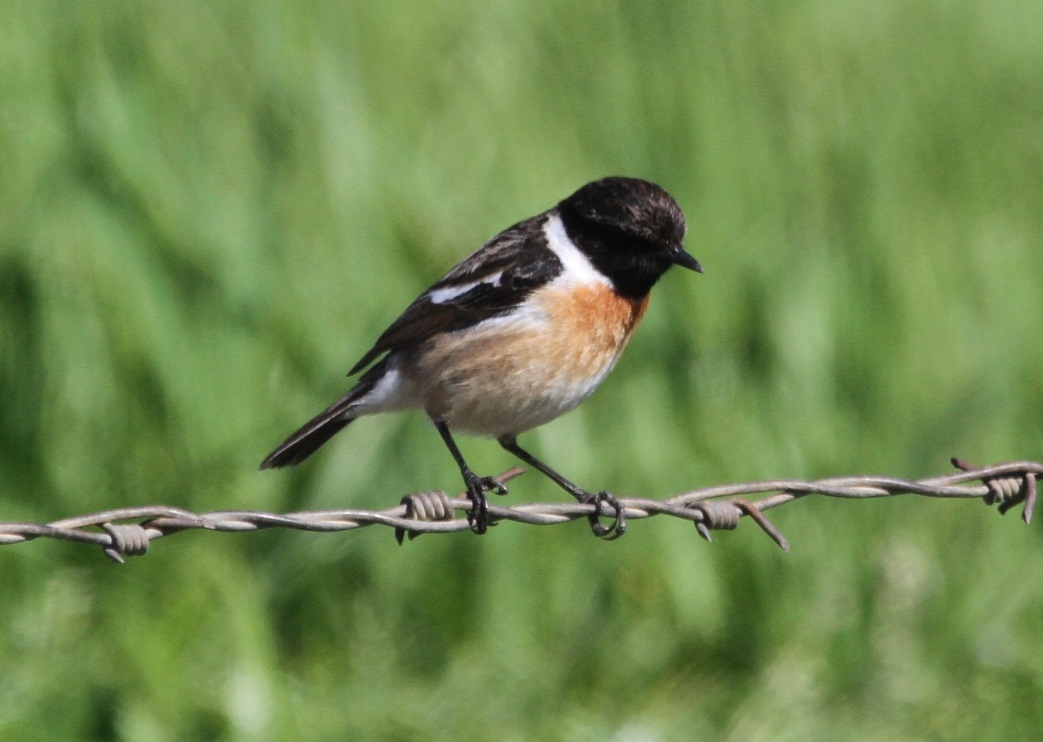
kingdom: Animalia
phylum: Chordata
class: Aves
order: Passeriformes
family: Muscicapidae
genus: Saxicola
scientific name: Saxicola rubicola
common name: European stonechat
